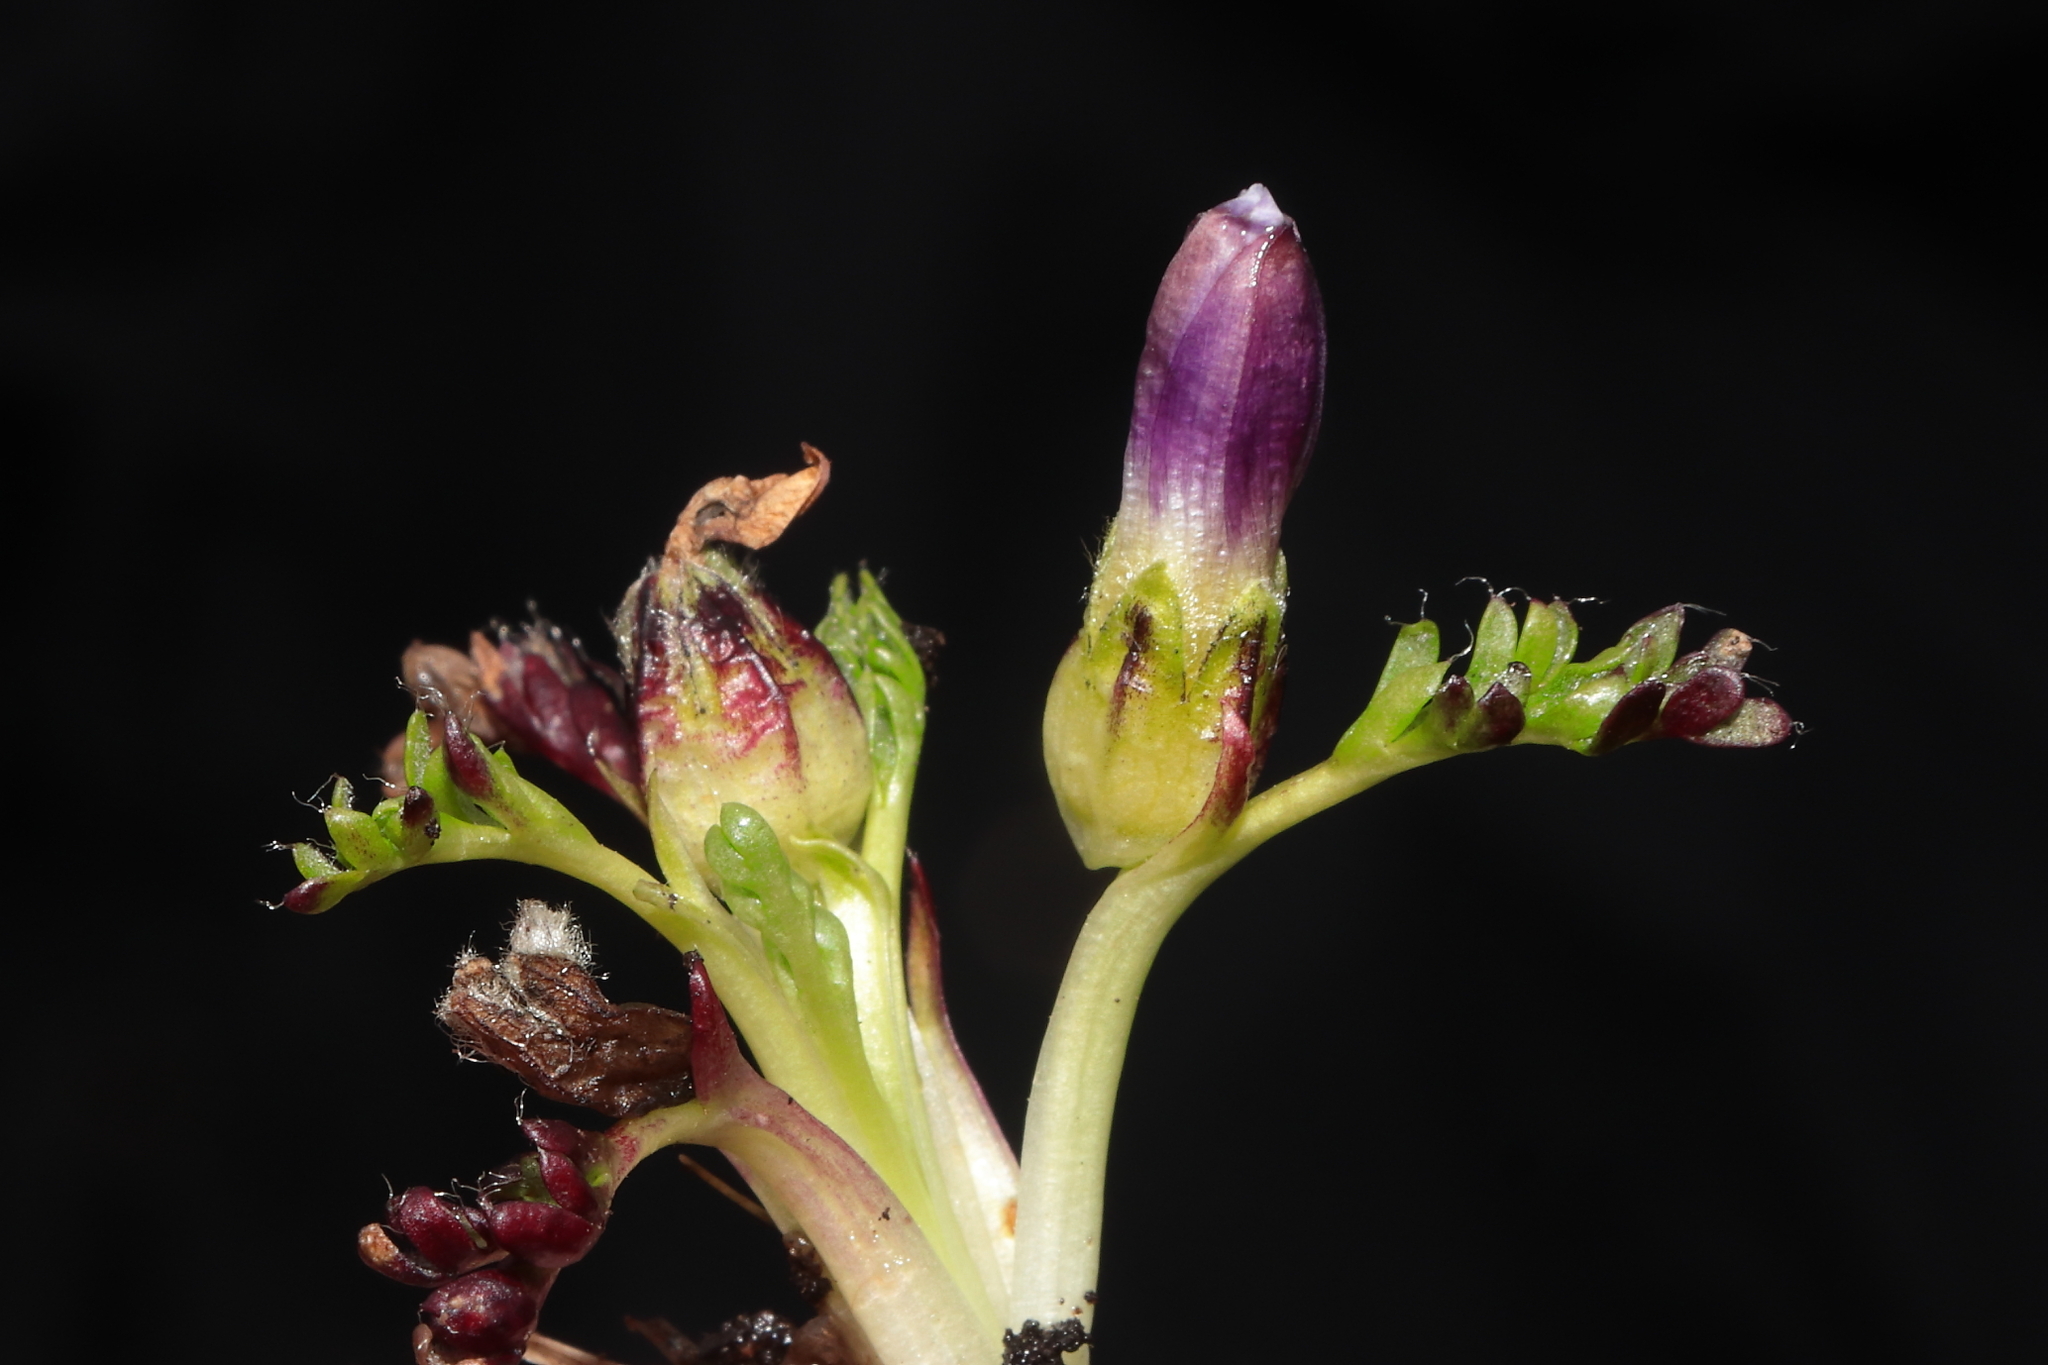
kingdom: Plantae
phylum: Tracheophyta
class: Magnoliopsida
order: Malvales
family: Malvaceae
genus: Nototriche
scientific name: Nototriche longirostris
